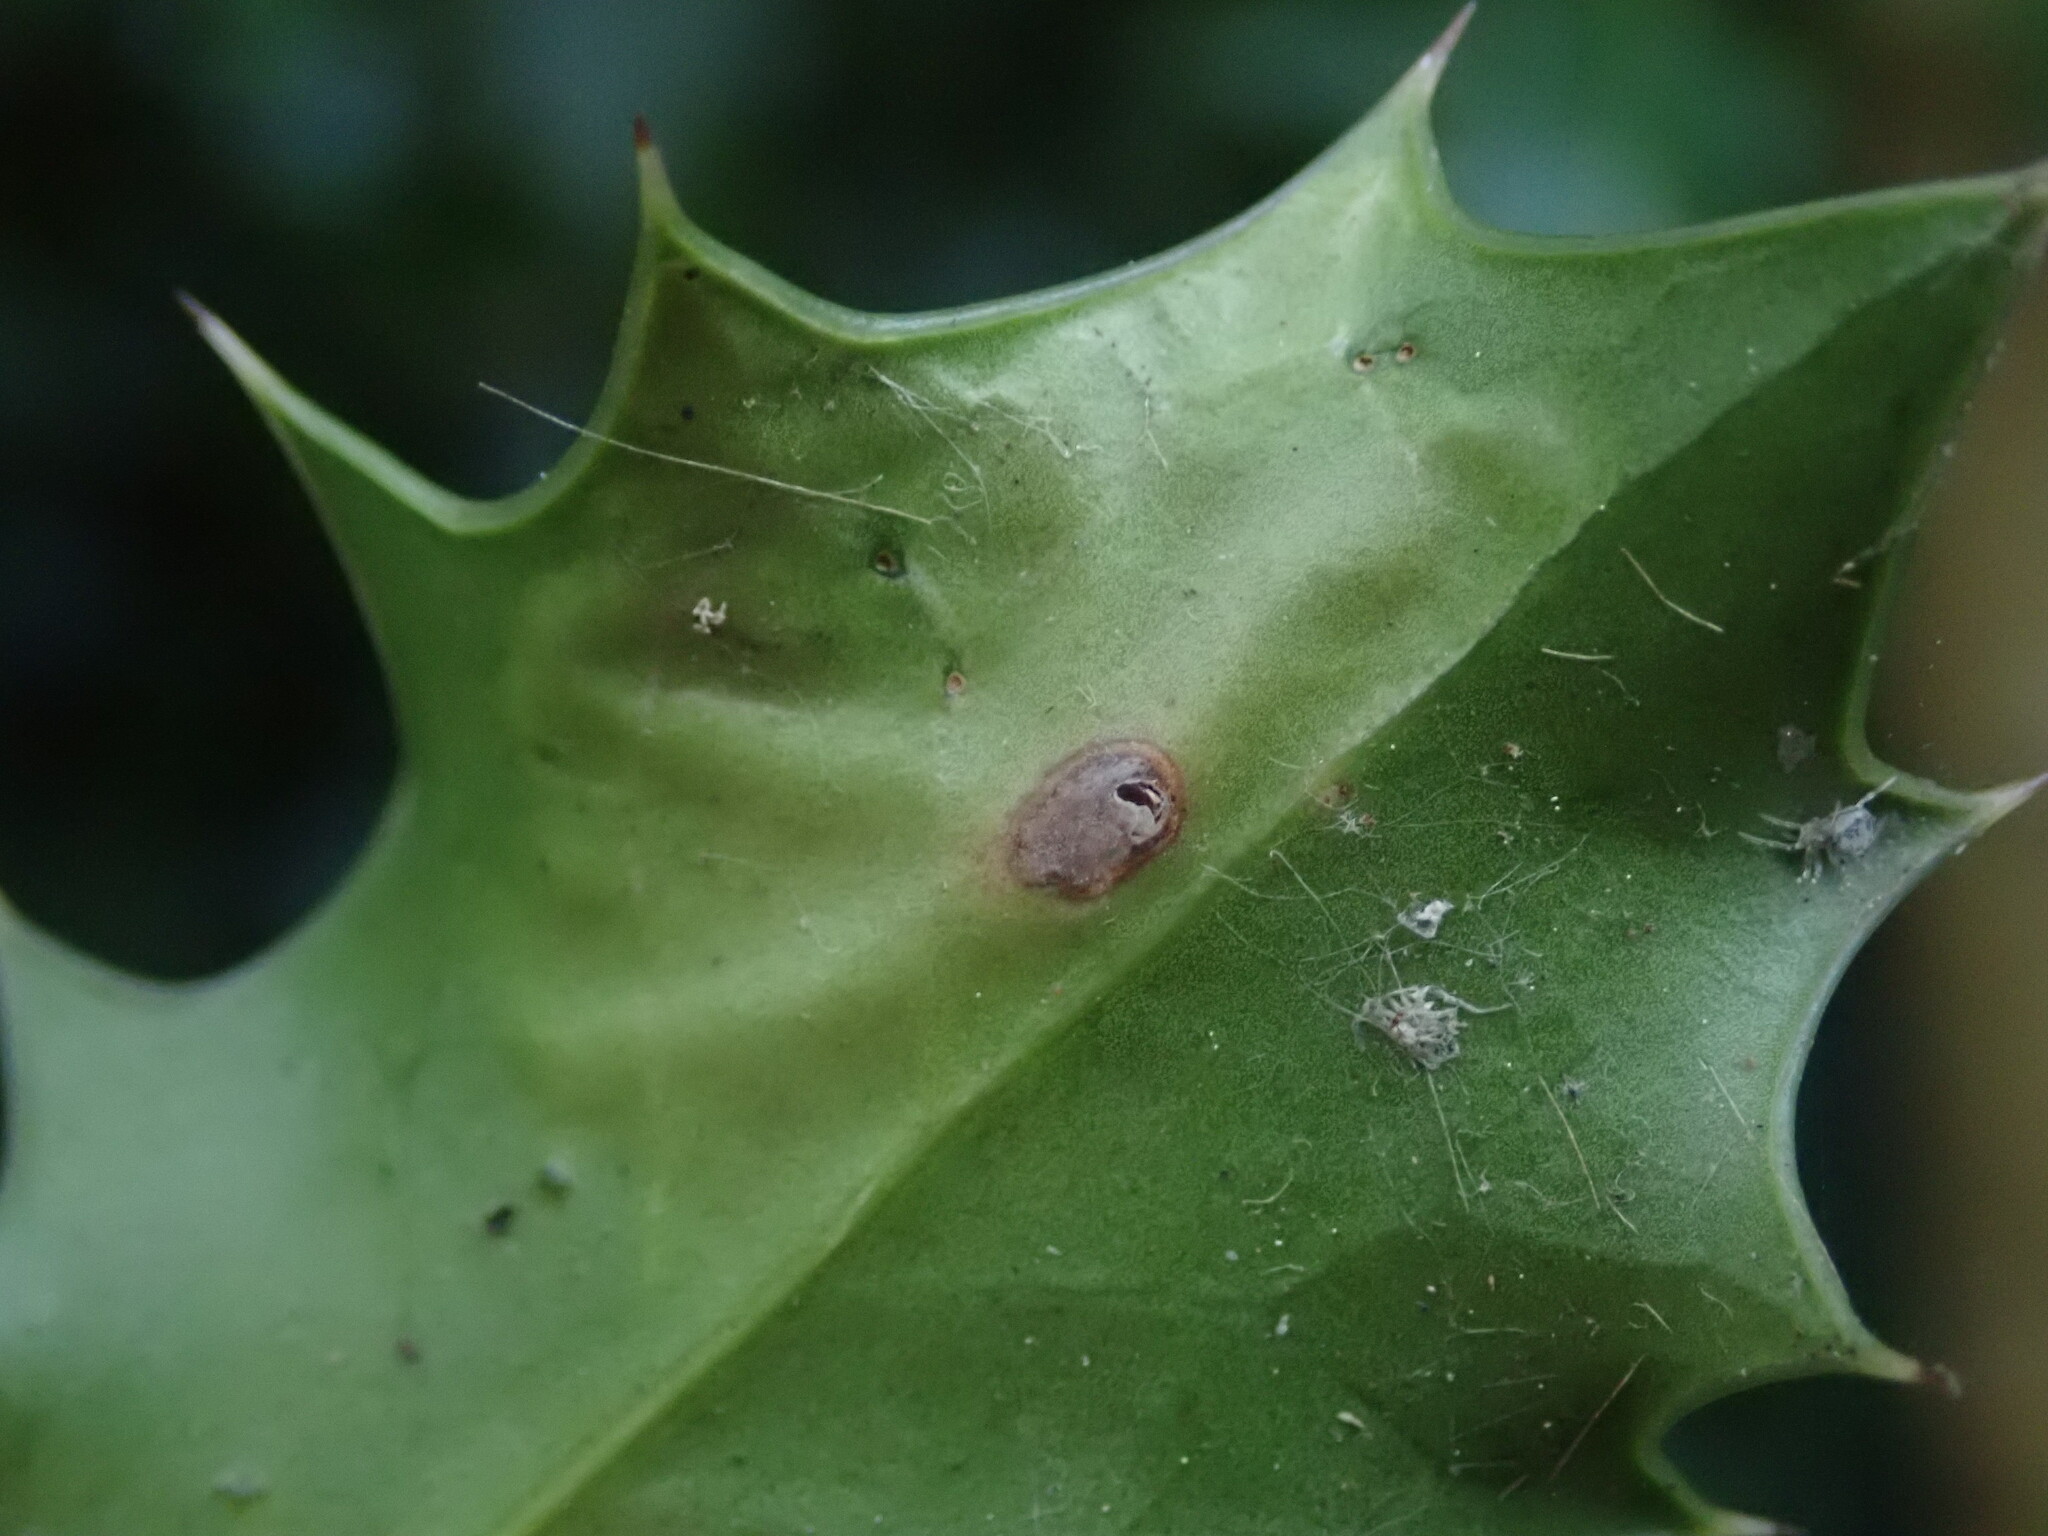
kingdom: Animalia
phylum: Arthropoda
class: Insecta
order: Diptera
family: Agromyzidae
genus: Phytomyza
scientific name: Phytomyza ilicis
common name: Holly leafminer
